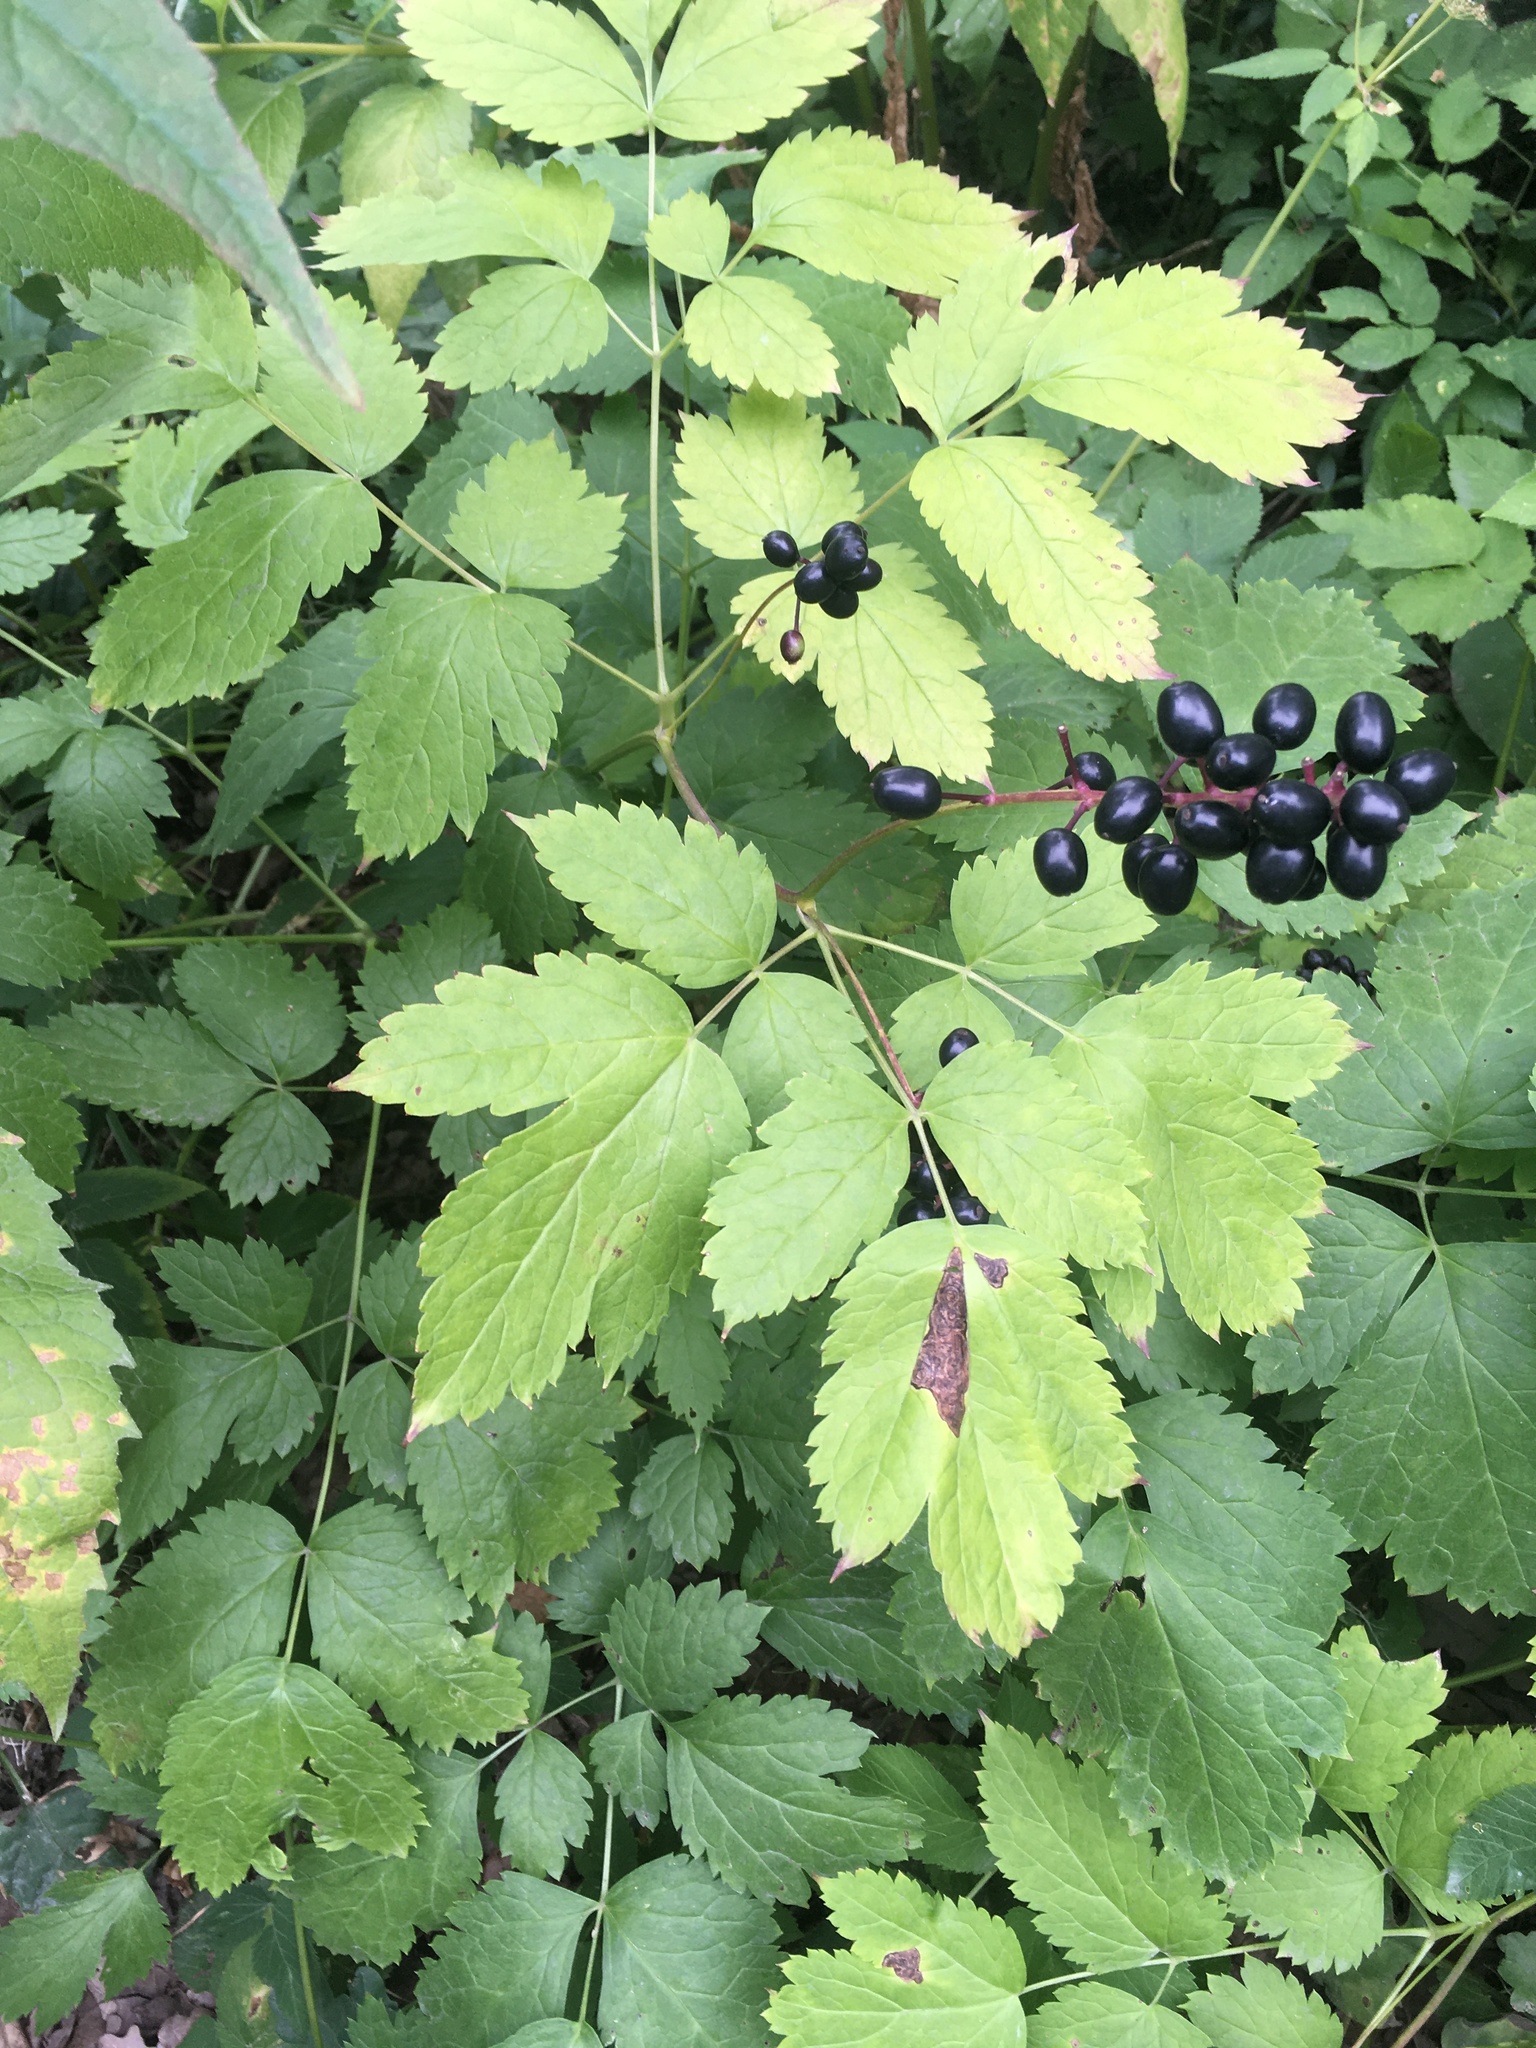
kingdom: Plantae
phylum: Tracheophyta
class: Magnoliopsida
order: Ranunculales
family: Ranunculaceae
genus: Actaea
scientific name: Actaea spicata
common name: Baneberry
